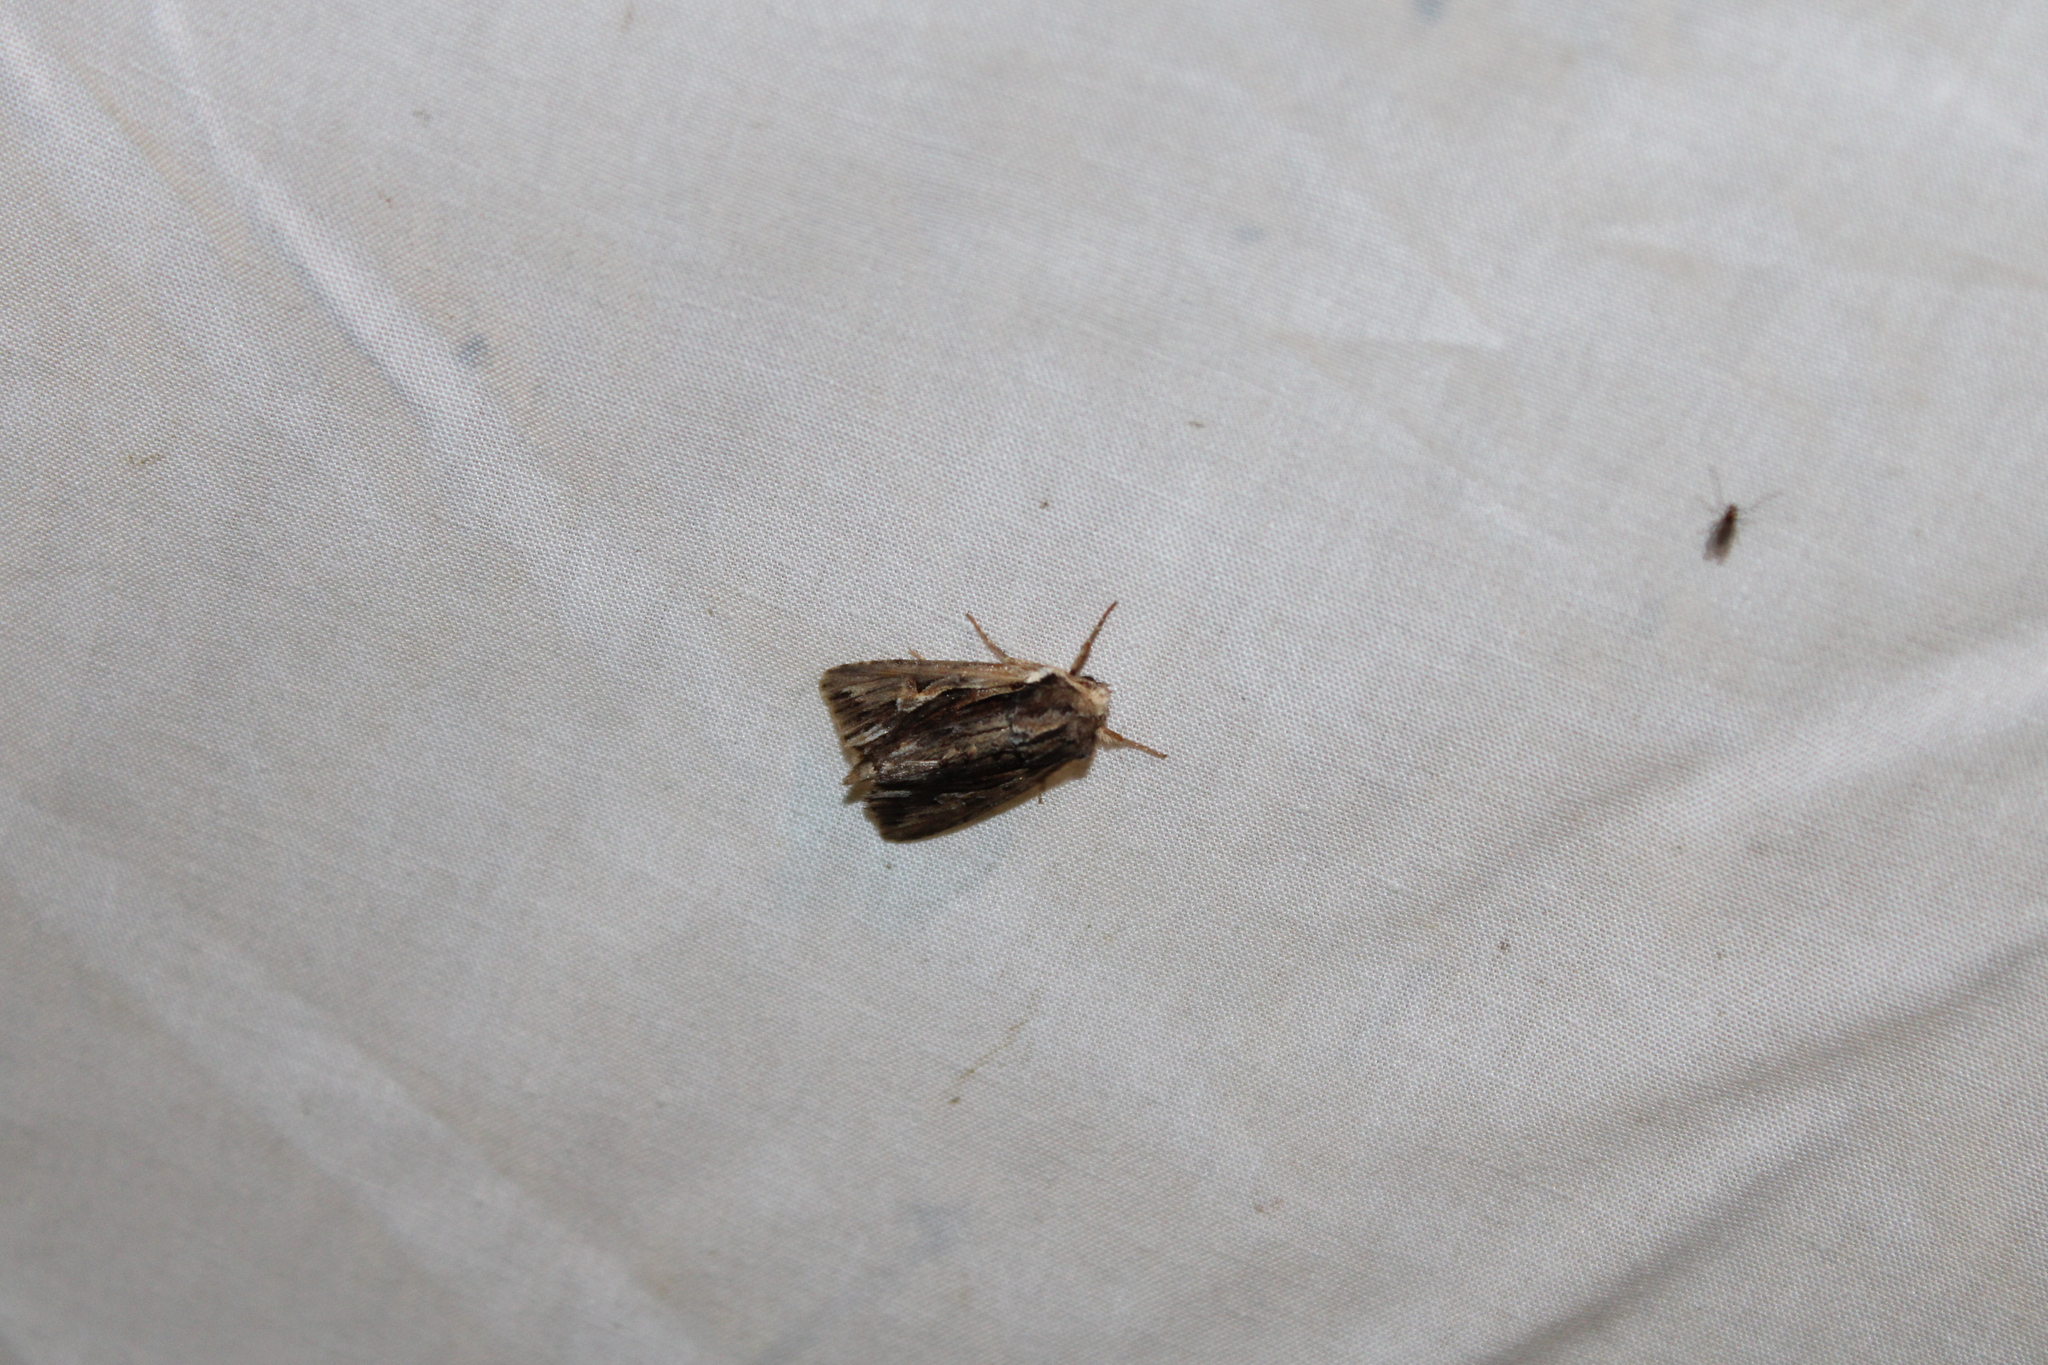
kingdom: Animalia
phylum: Arthropoda
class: Insecta
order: Lepidoptera
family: Noctuidae
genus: Achatia
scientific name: Achatia evicta
